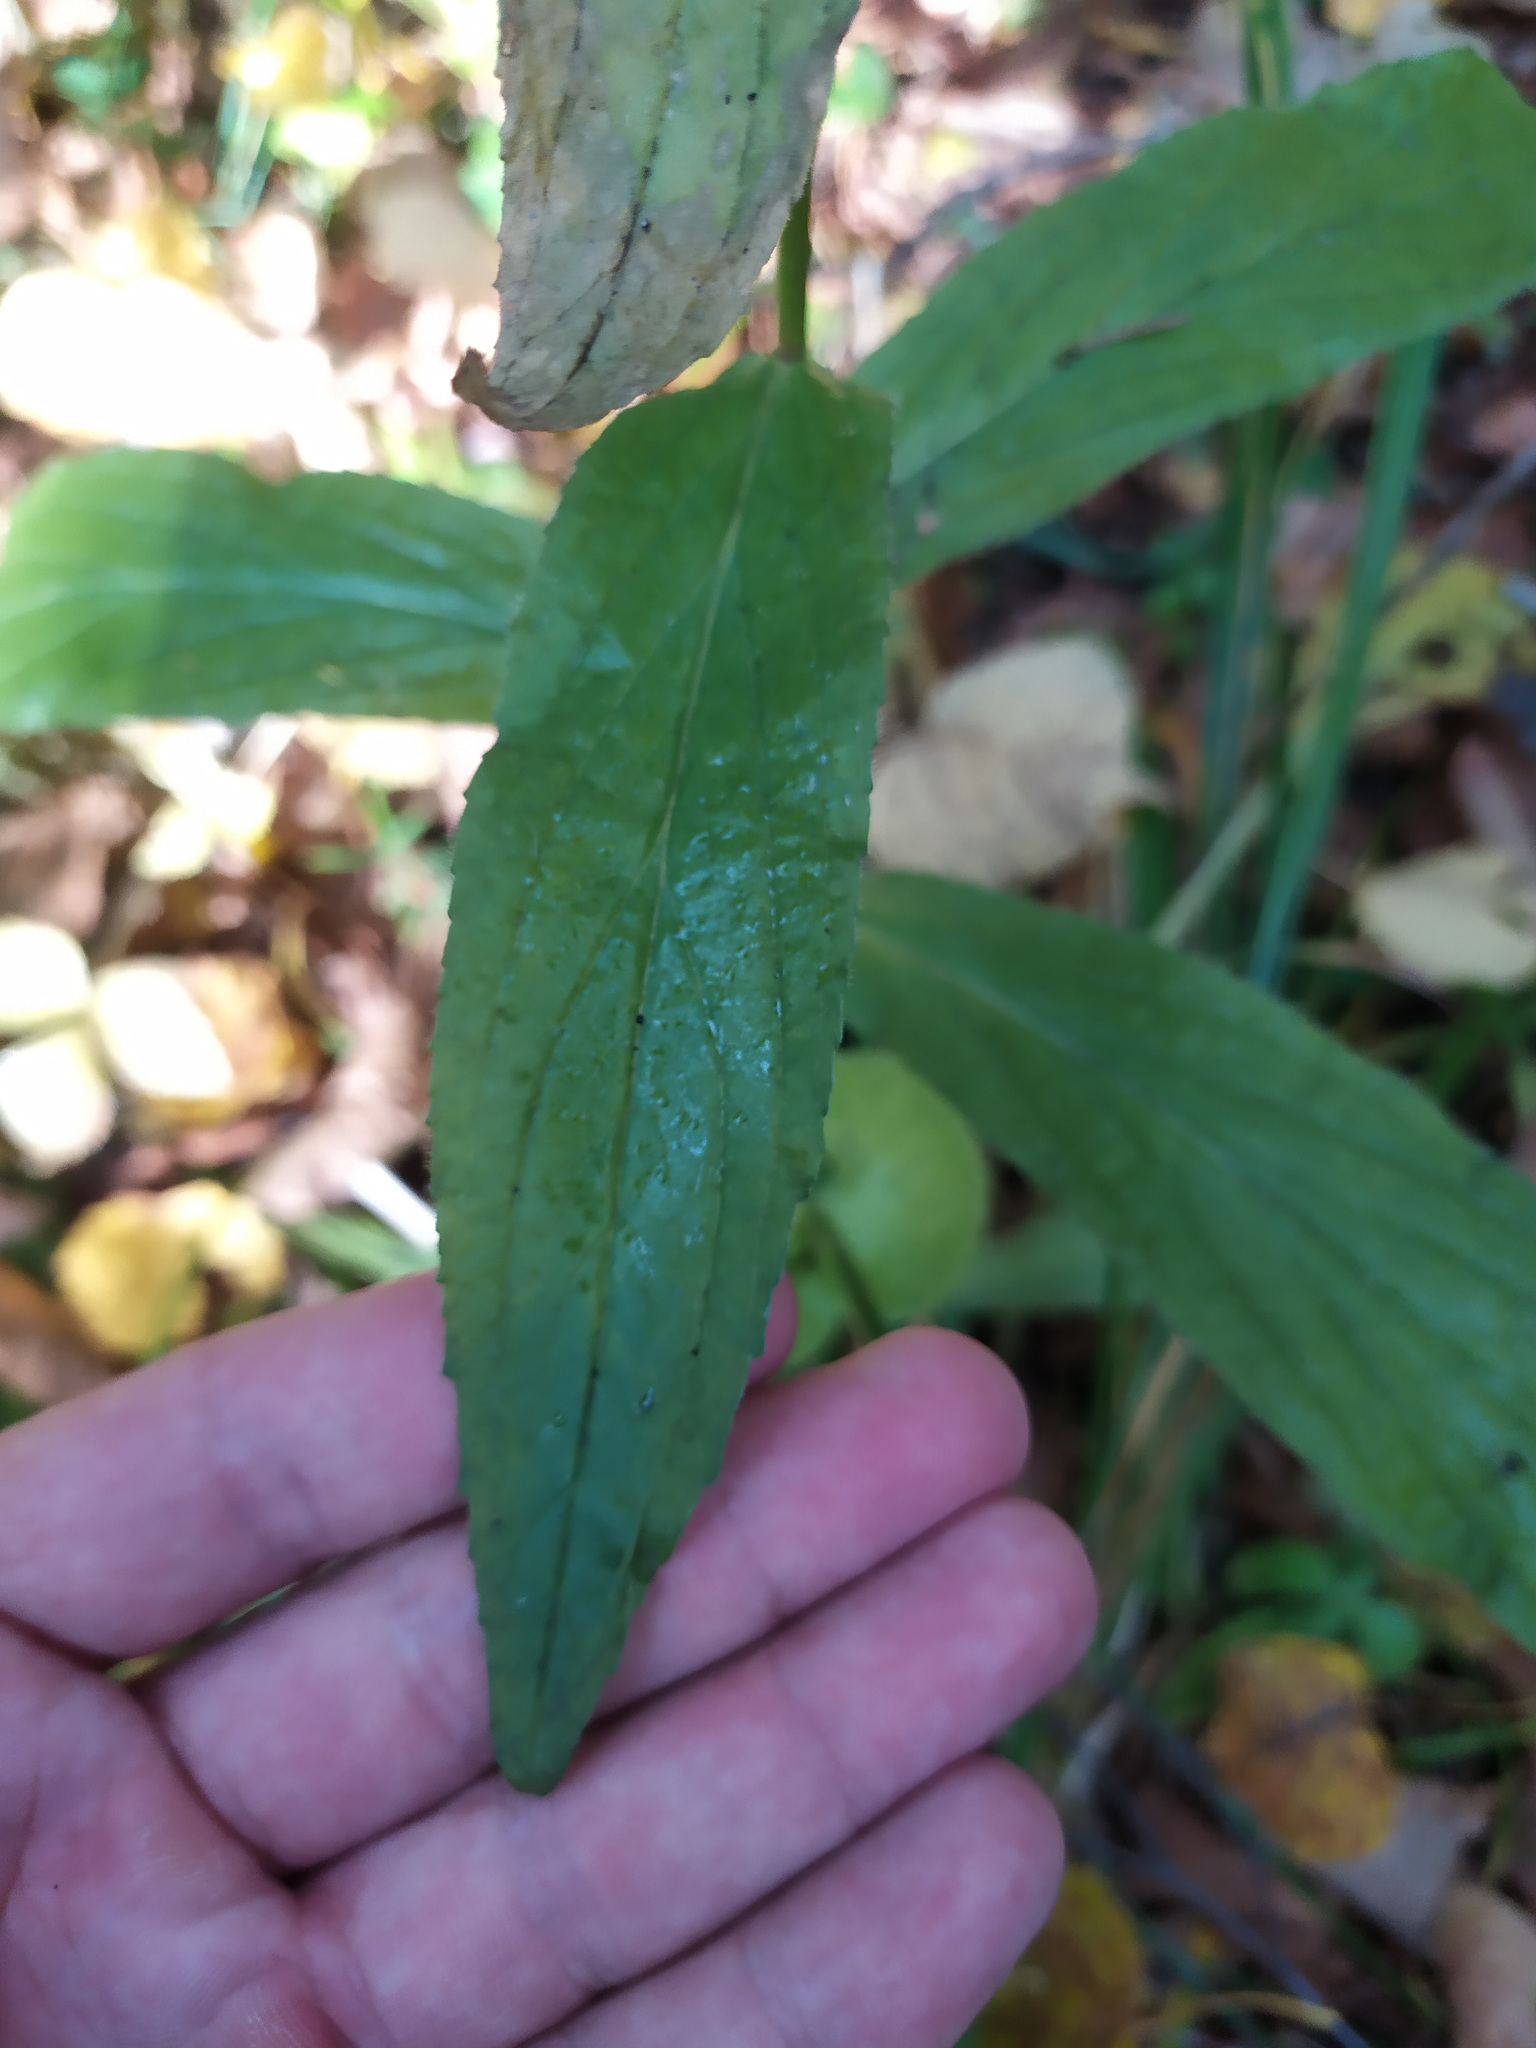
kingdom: Plantae
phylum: Tracheophyta
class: Magnoliopsida
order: Lamiales
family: Plantaginaceae
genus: Digitalis
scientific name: Digitalis grandiflora
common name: Yellow foxglove
